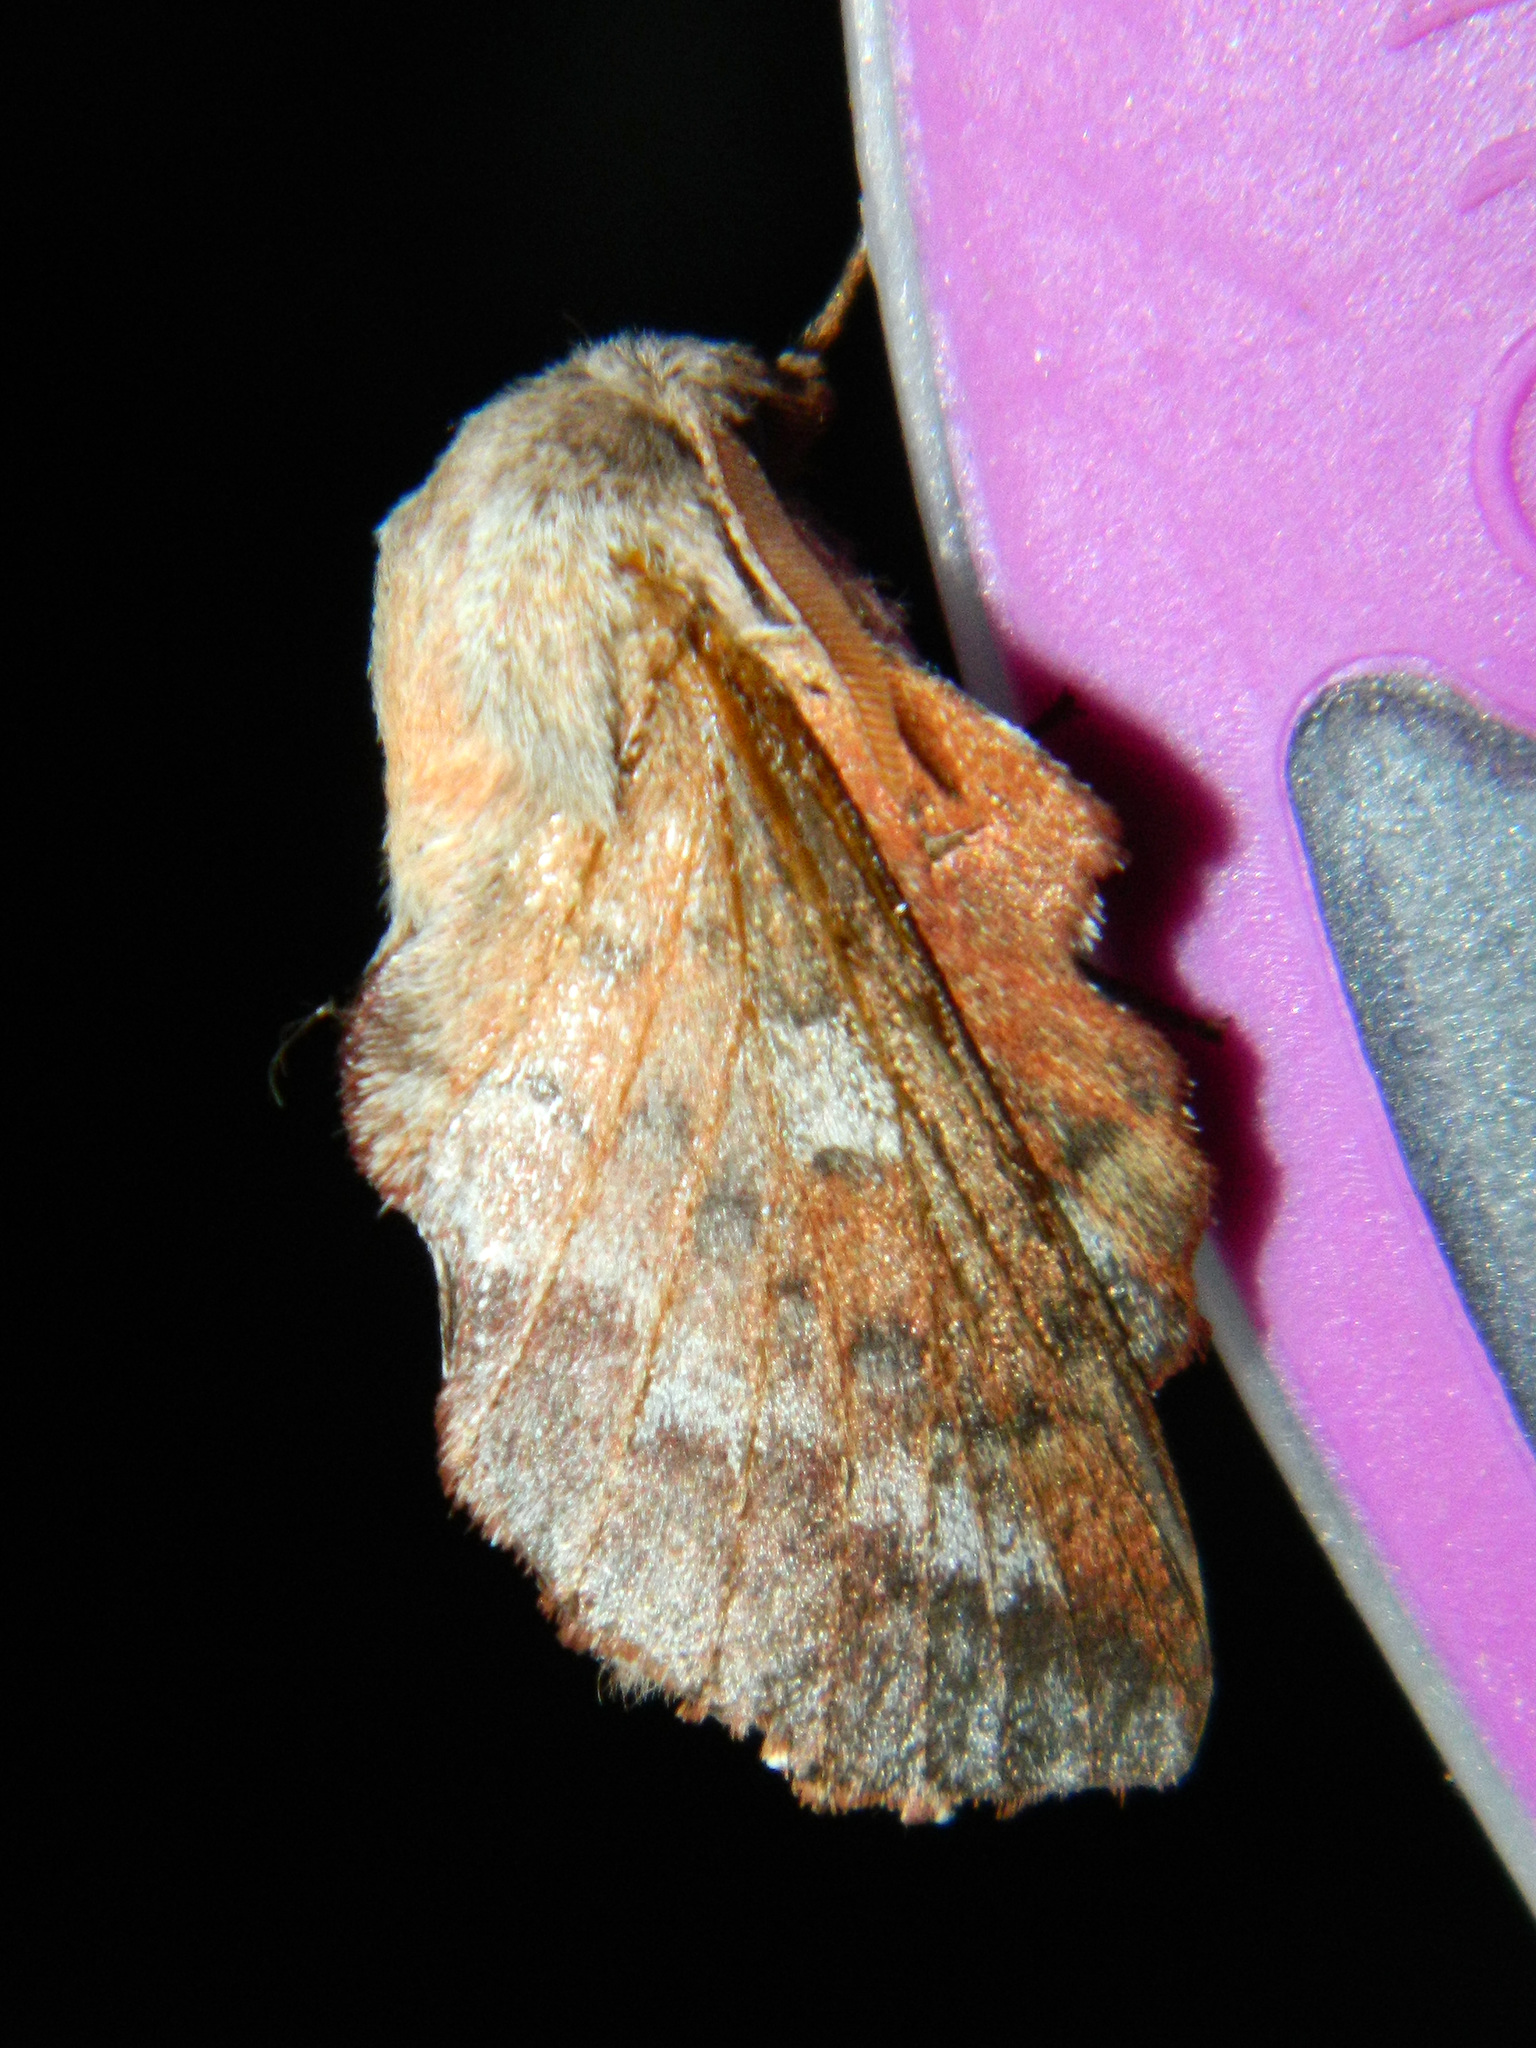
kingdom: Animalia
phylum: Arthropoda
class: Insecta
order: Lepidoptera
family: Lasiocampidae
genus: Phyllodesma
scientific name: Phyllodesma americana
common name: American lappet moth
